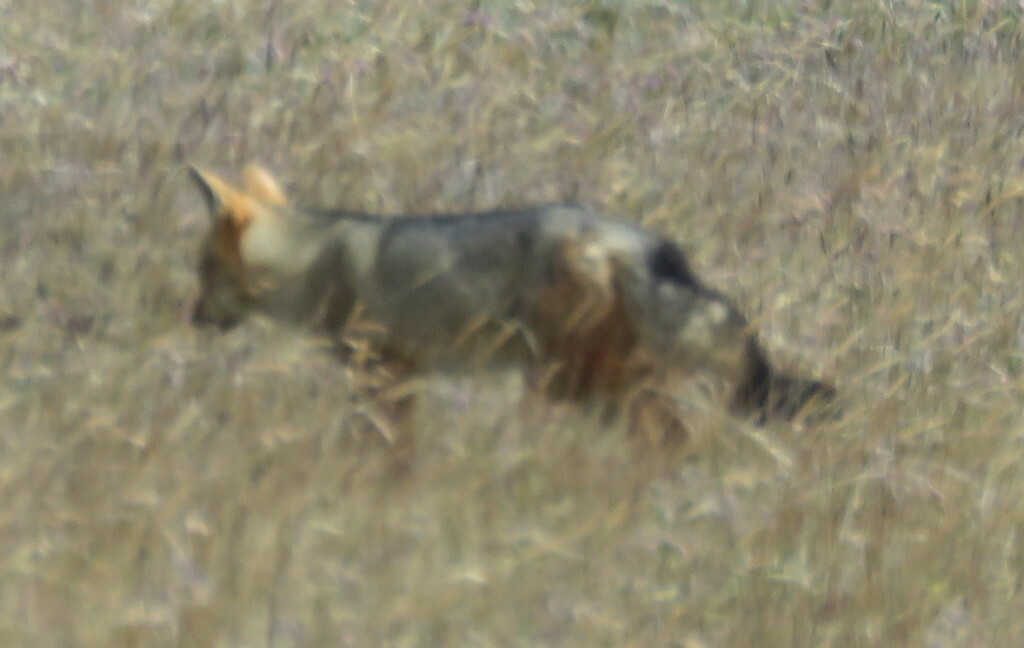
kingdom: Animalia
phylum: Chordata
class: Mammalia
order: Carnivora
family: Canidae
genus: Lycalopex
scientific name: Lycalopex culpaeus
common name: Culpeo
